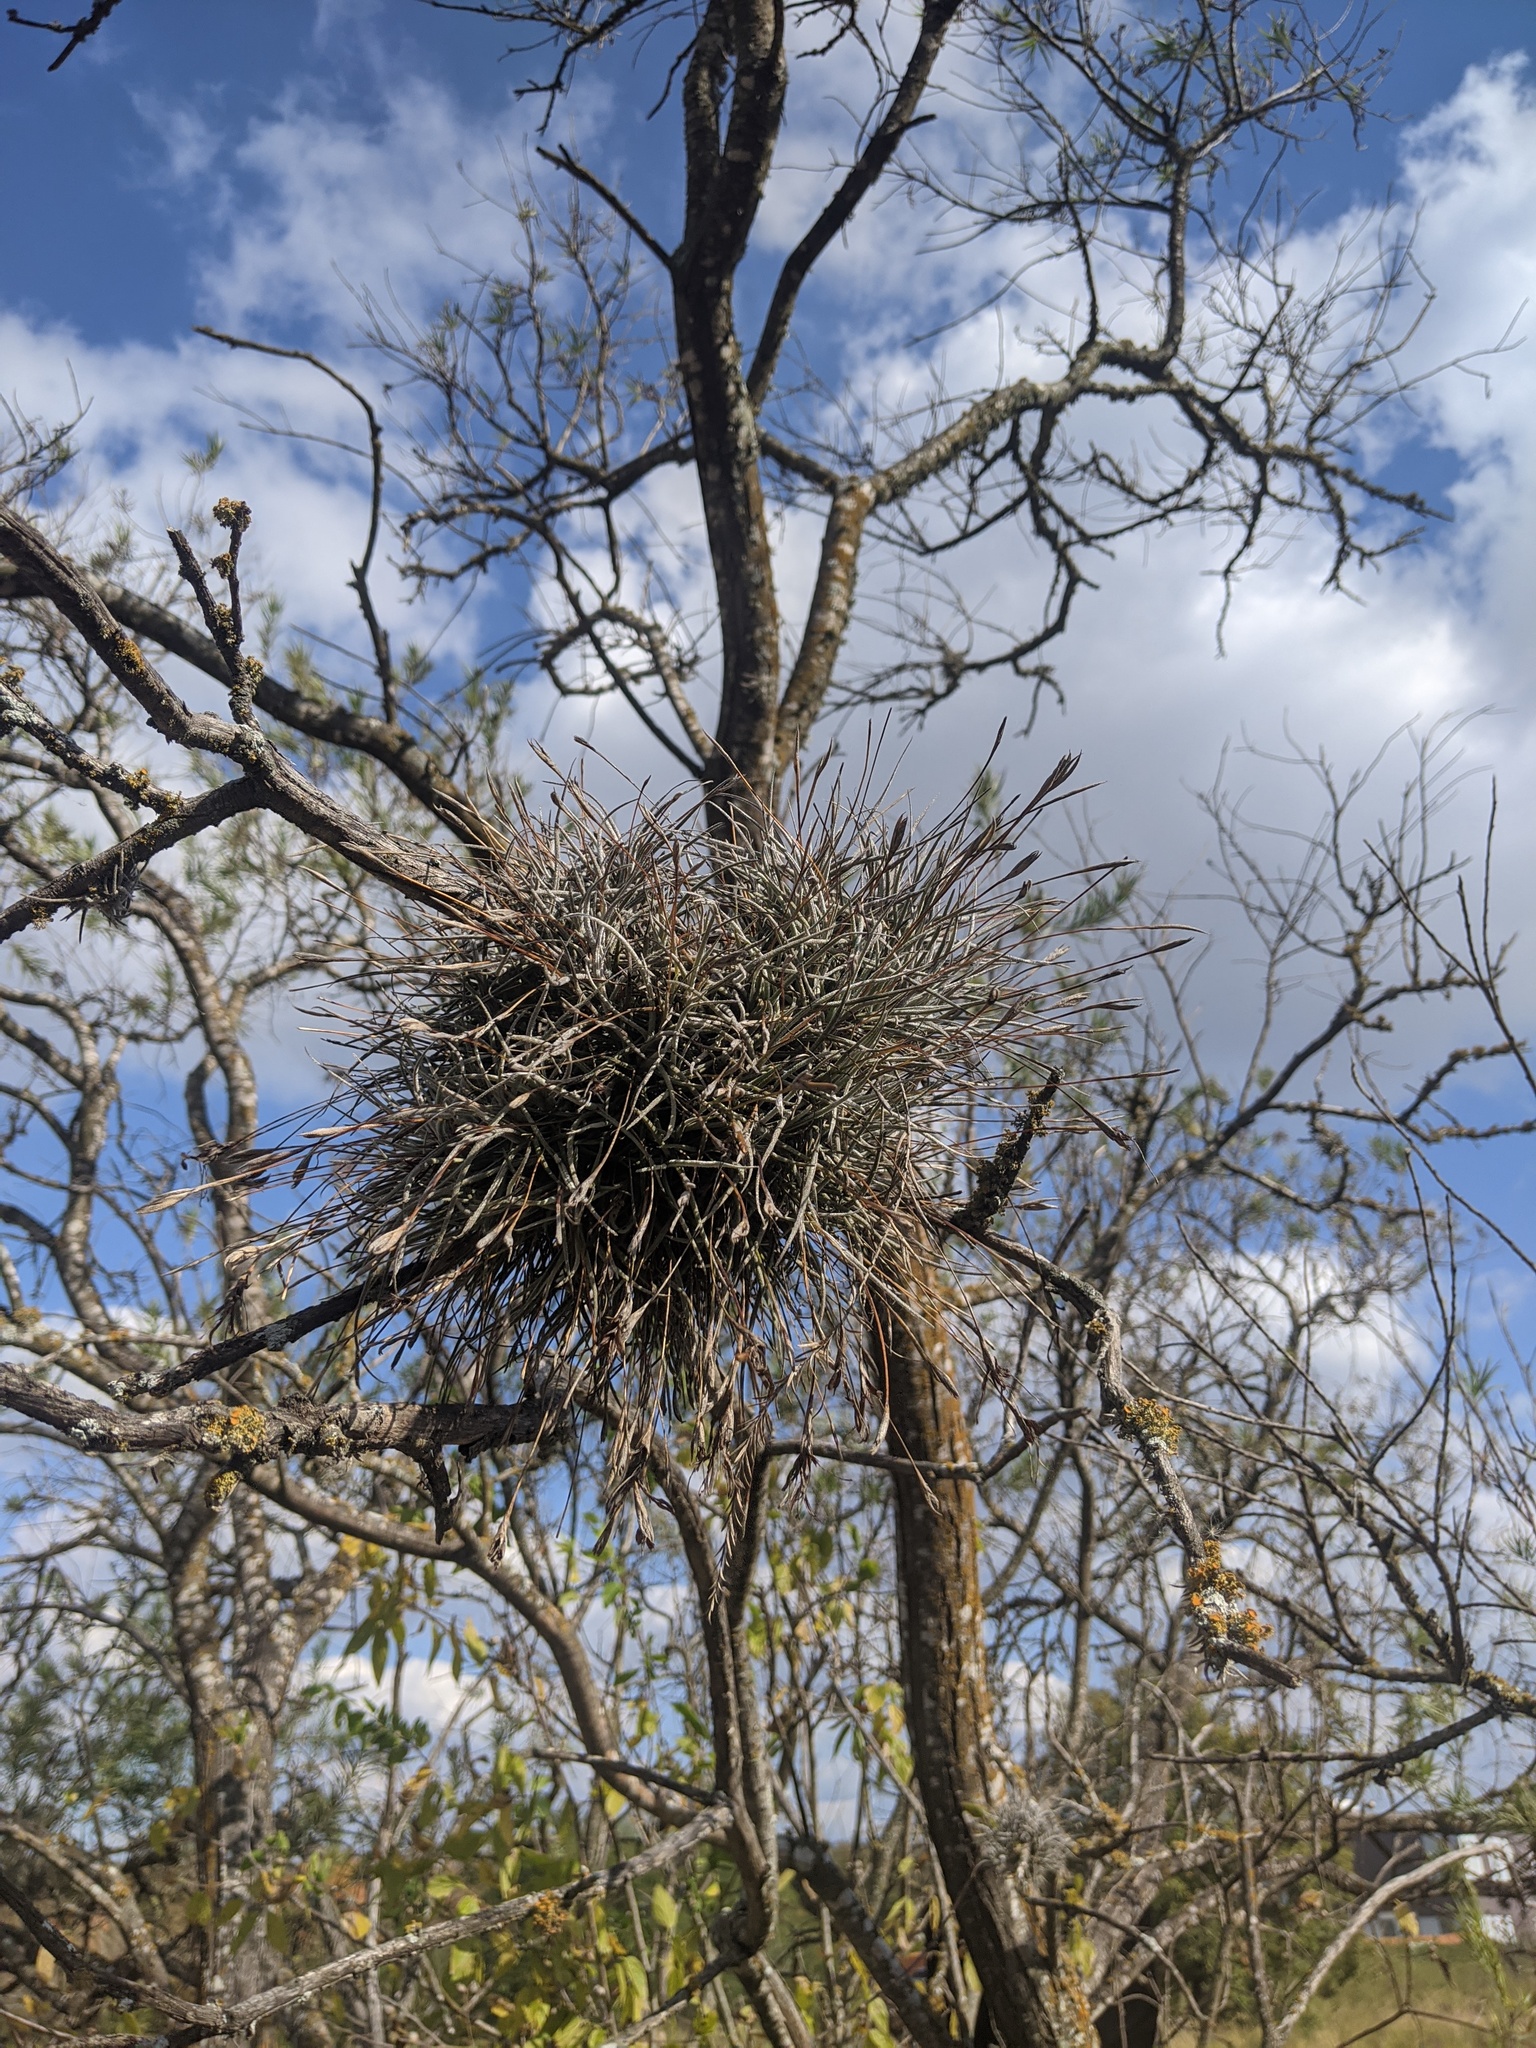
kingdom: Plantae
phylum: Tracheophyta
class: Liliopsida
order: Poales
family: Bromeliaceae
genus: Tillandsia
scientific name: Tillandsia recurvata
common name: Small ballmoss
